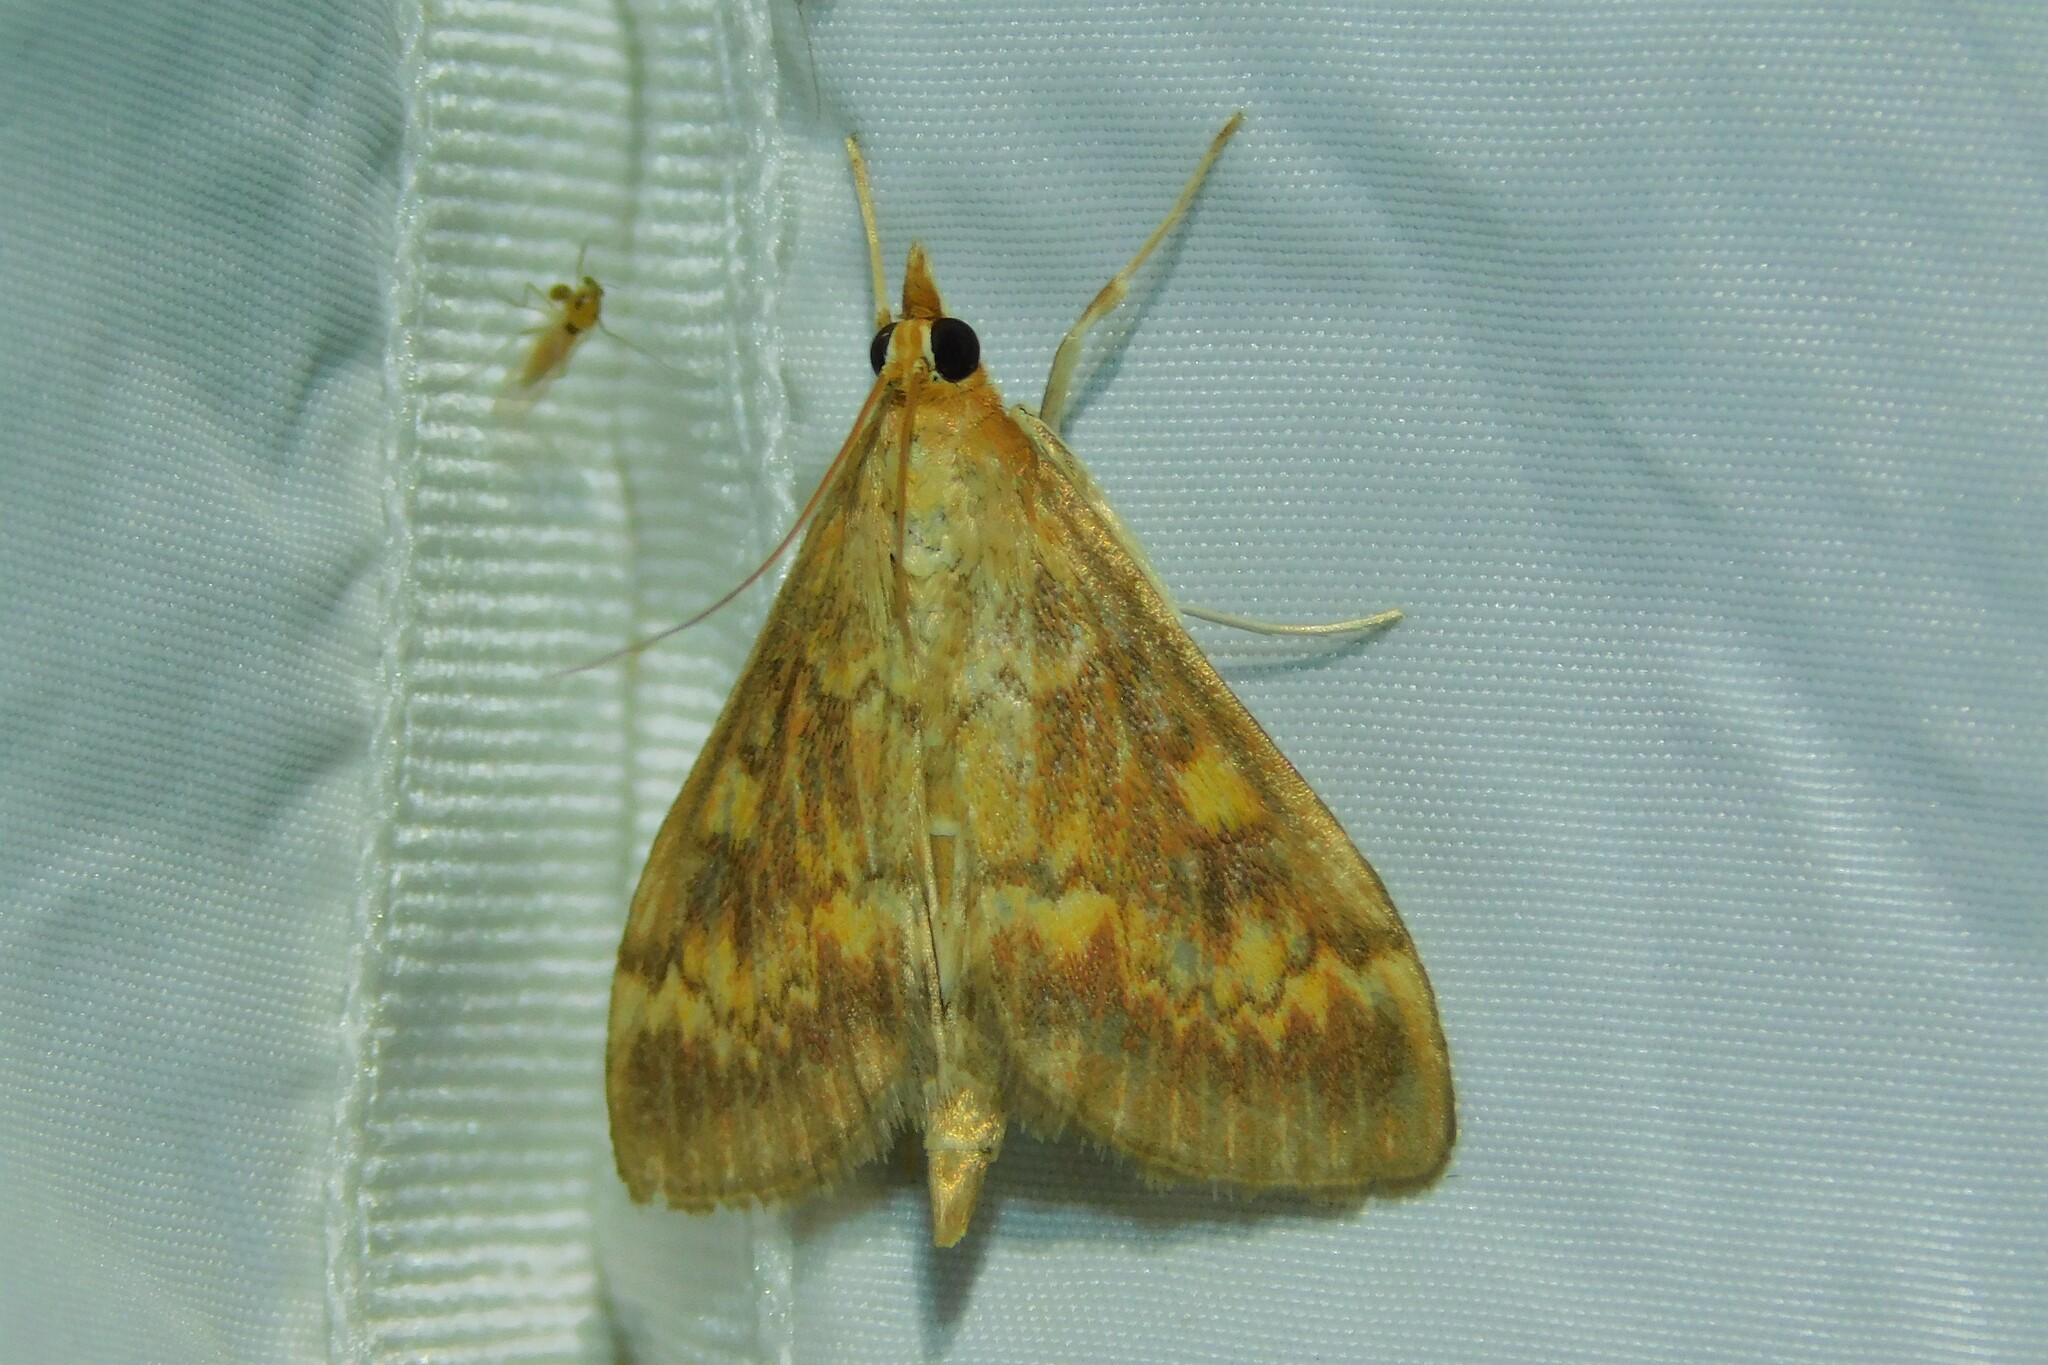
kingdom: Animalia
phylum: Arthropoda
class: Insecta
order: Lepidoptera
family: Crambidae
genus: Ostrinia
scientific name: Ostrinia nubilalis
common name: European corn borer
